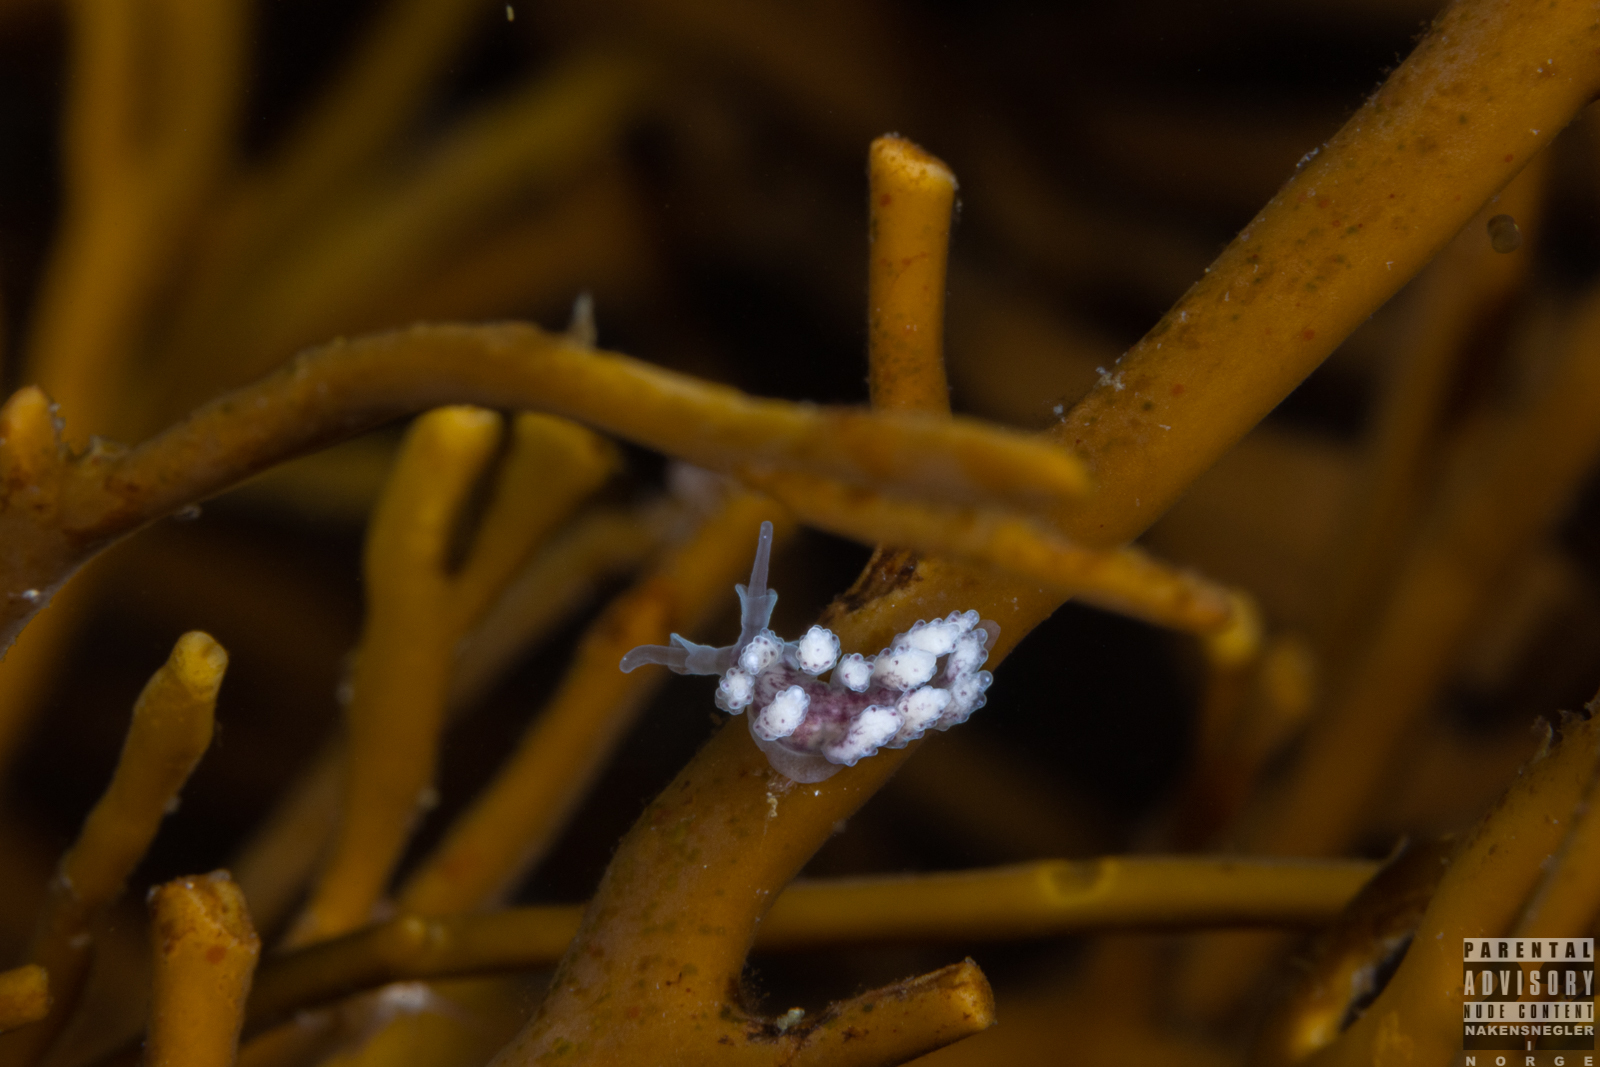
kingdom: Animalia
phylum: Mollusca
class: Gastropoda
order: Nudibranchia
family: Dotidae
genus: Doto
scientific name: Doto coronata
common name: Coronate doto
